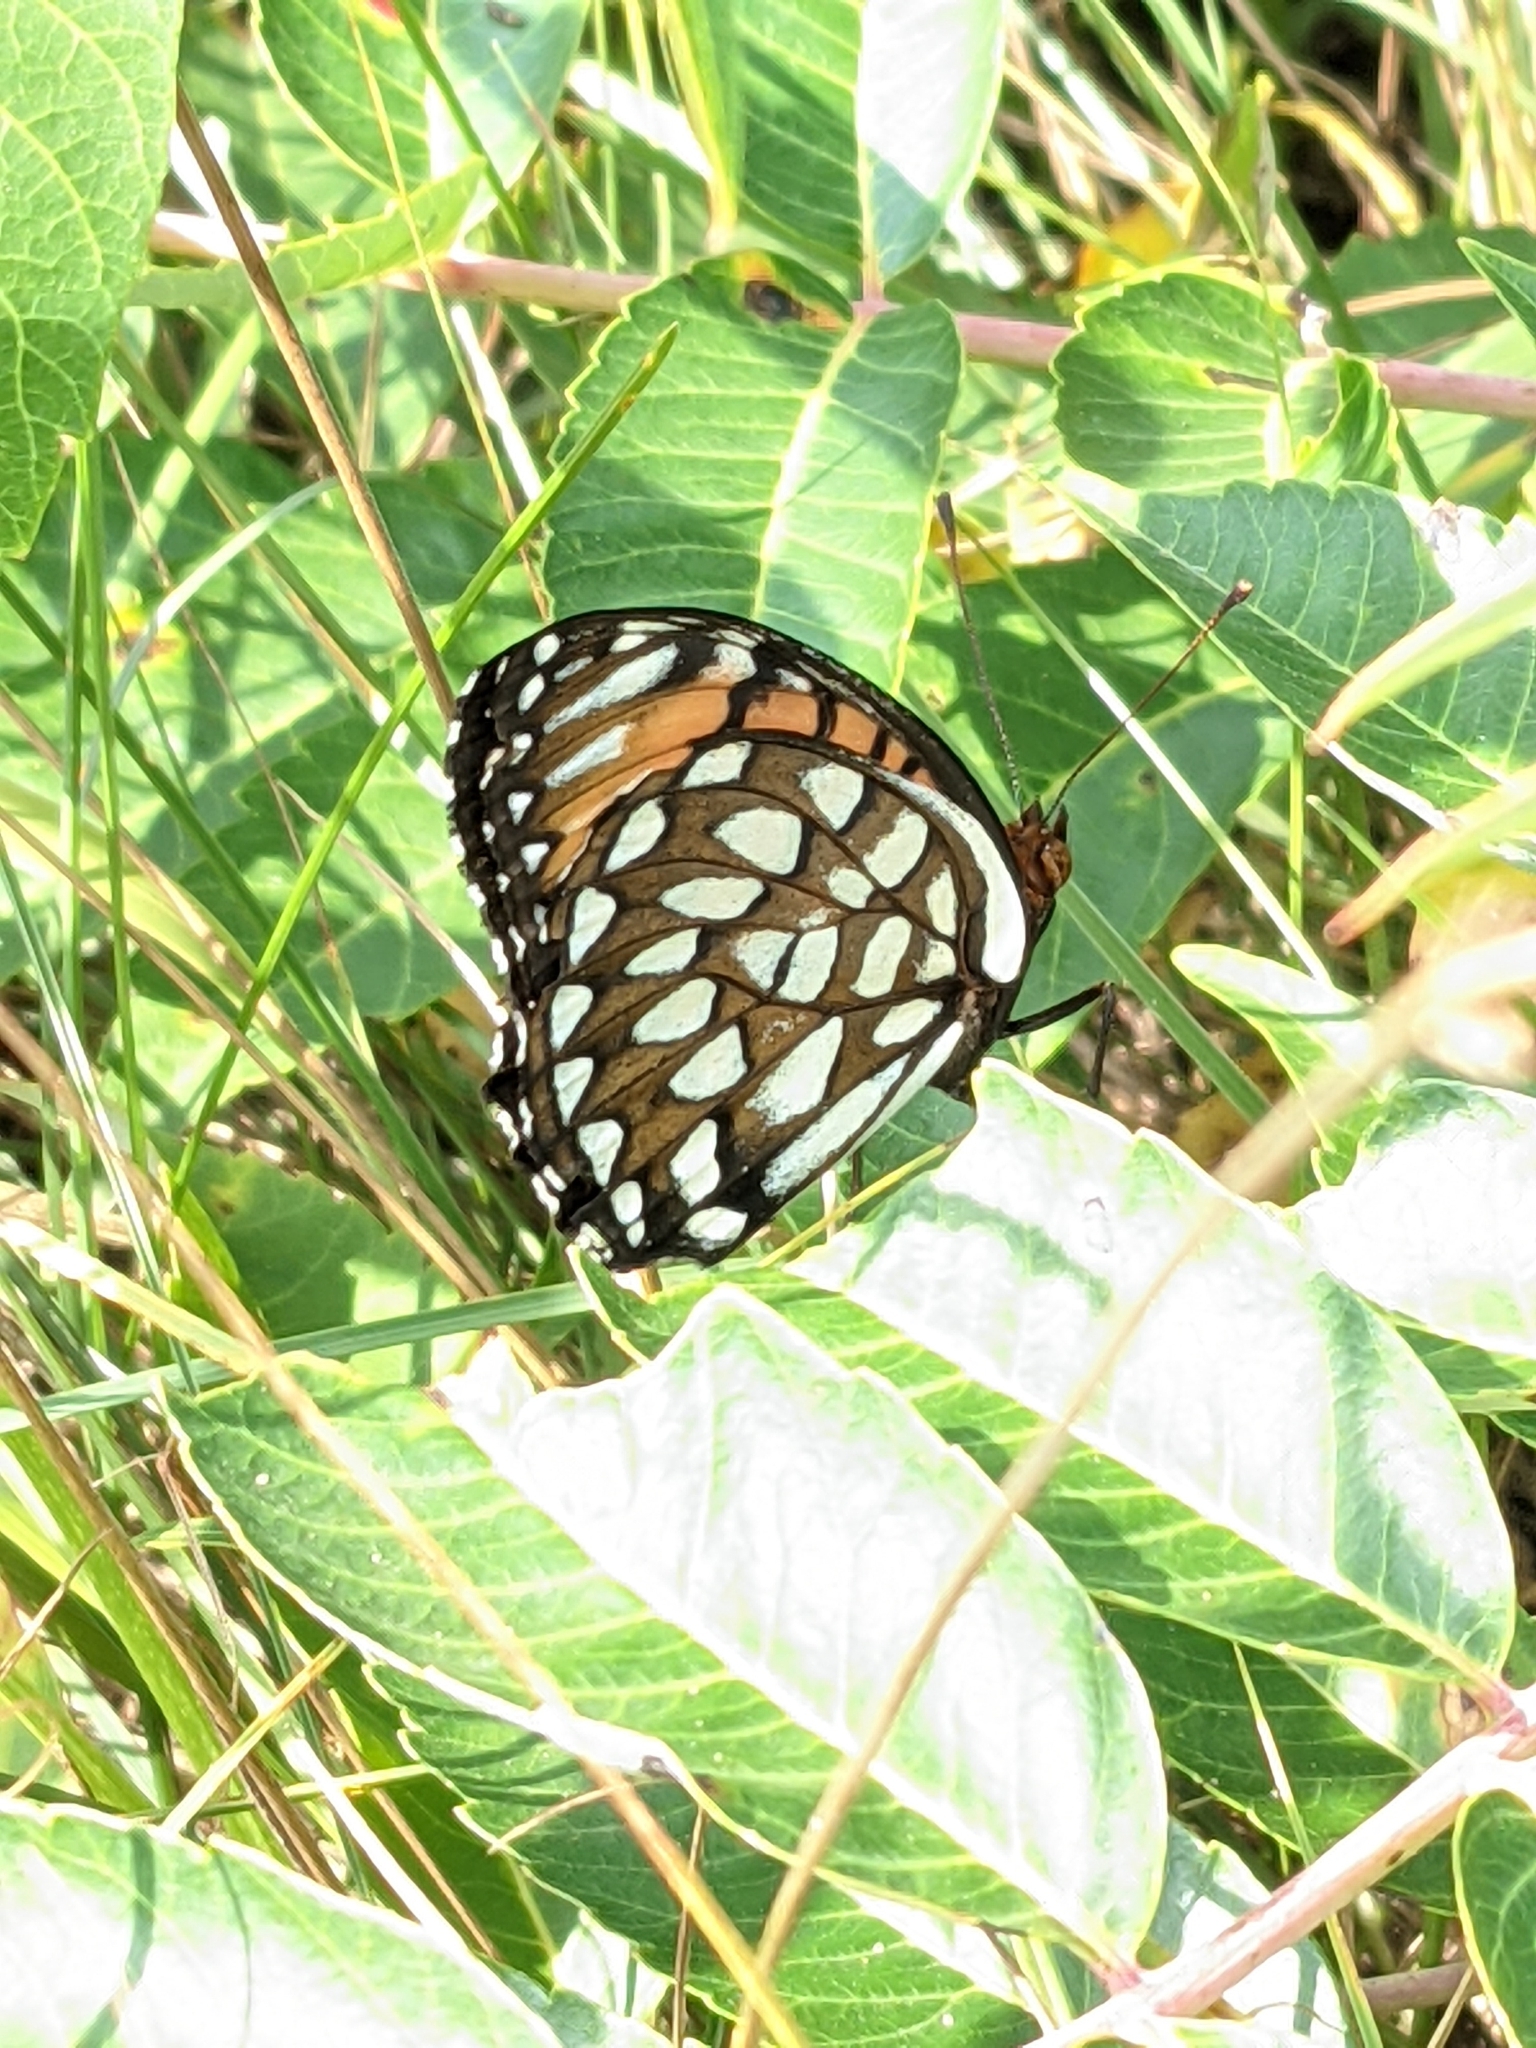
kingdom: Animalia
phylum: Arthropoda
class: Insecta
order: Lepidoptera
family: Nymphalidae
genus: Speyeria
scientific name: Speyeria idalia
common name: Regal fritillary
